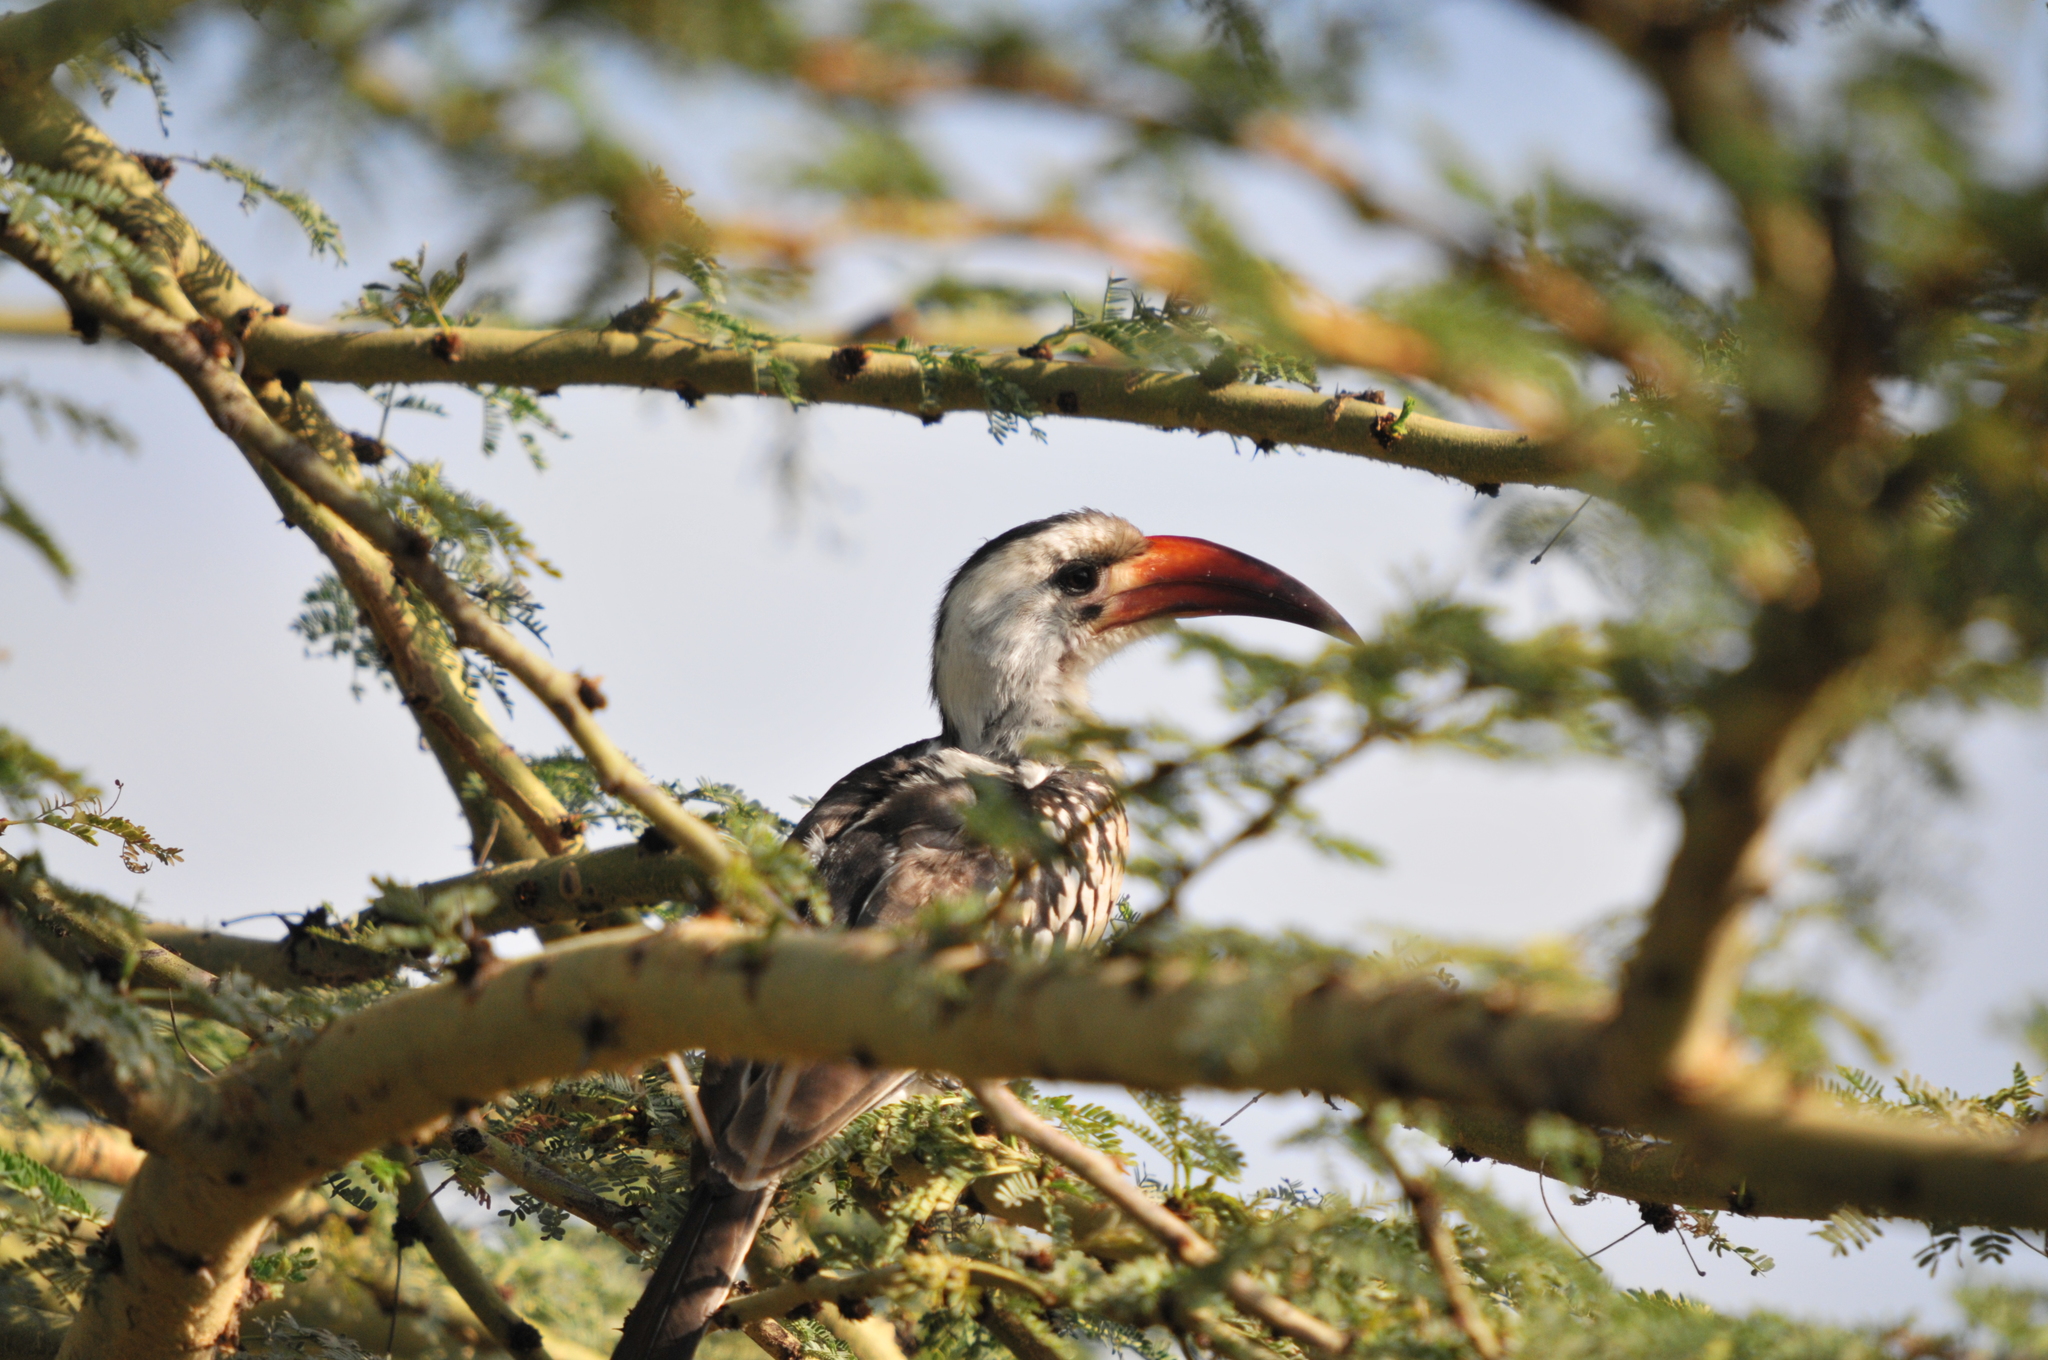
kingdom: Animalia
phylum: Chordata
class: Aves
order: Bucerotiformes
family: Bucerotidae
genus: Tockus
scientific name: Tockus erythrorhynchus
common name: Northern red-billed hornbill
